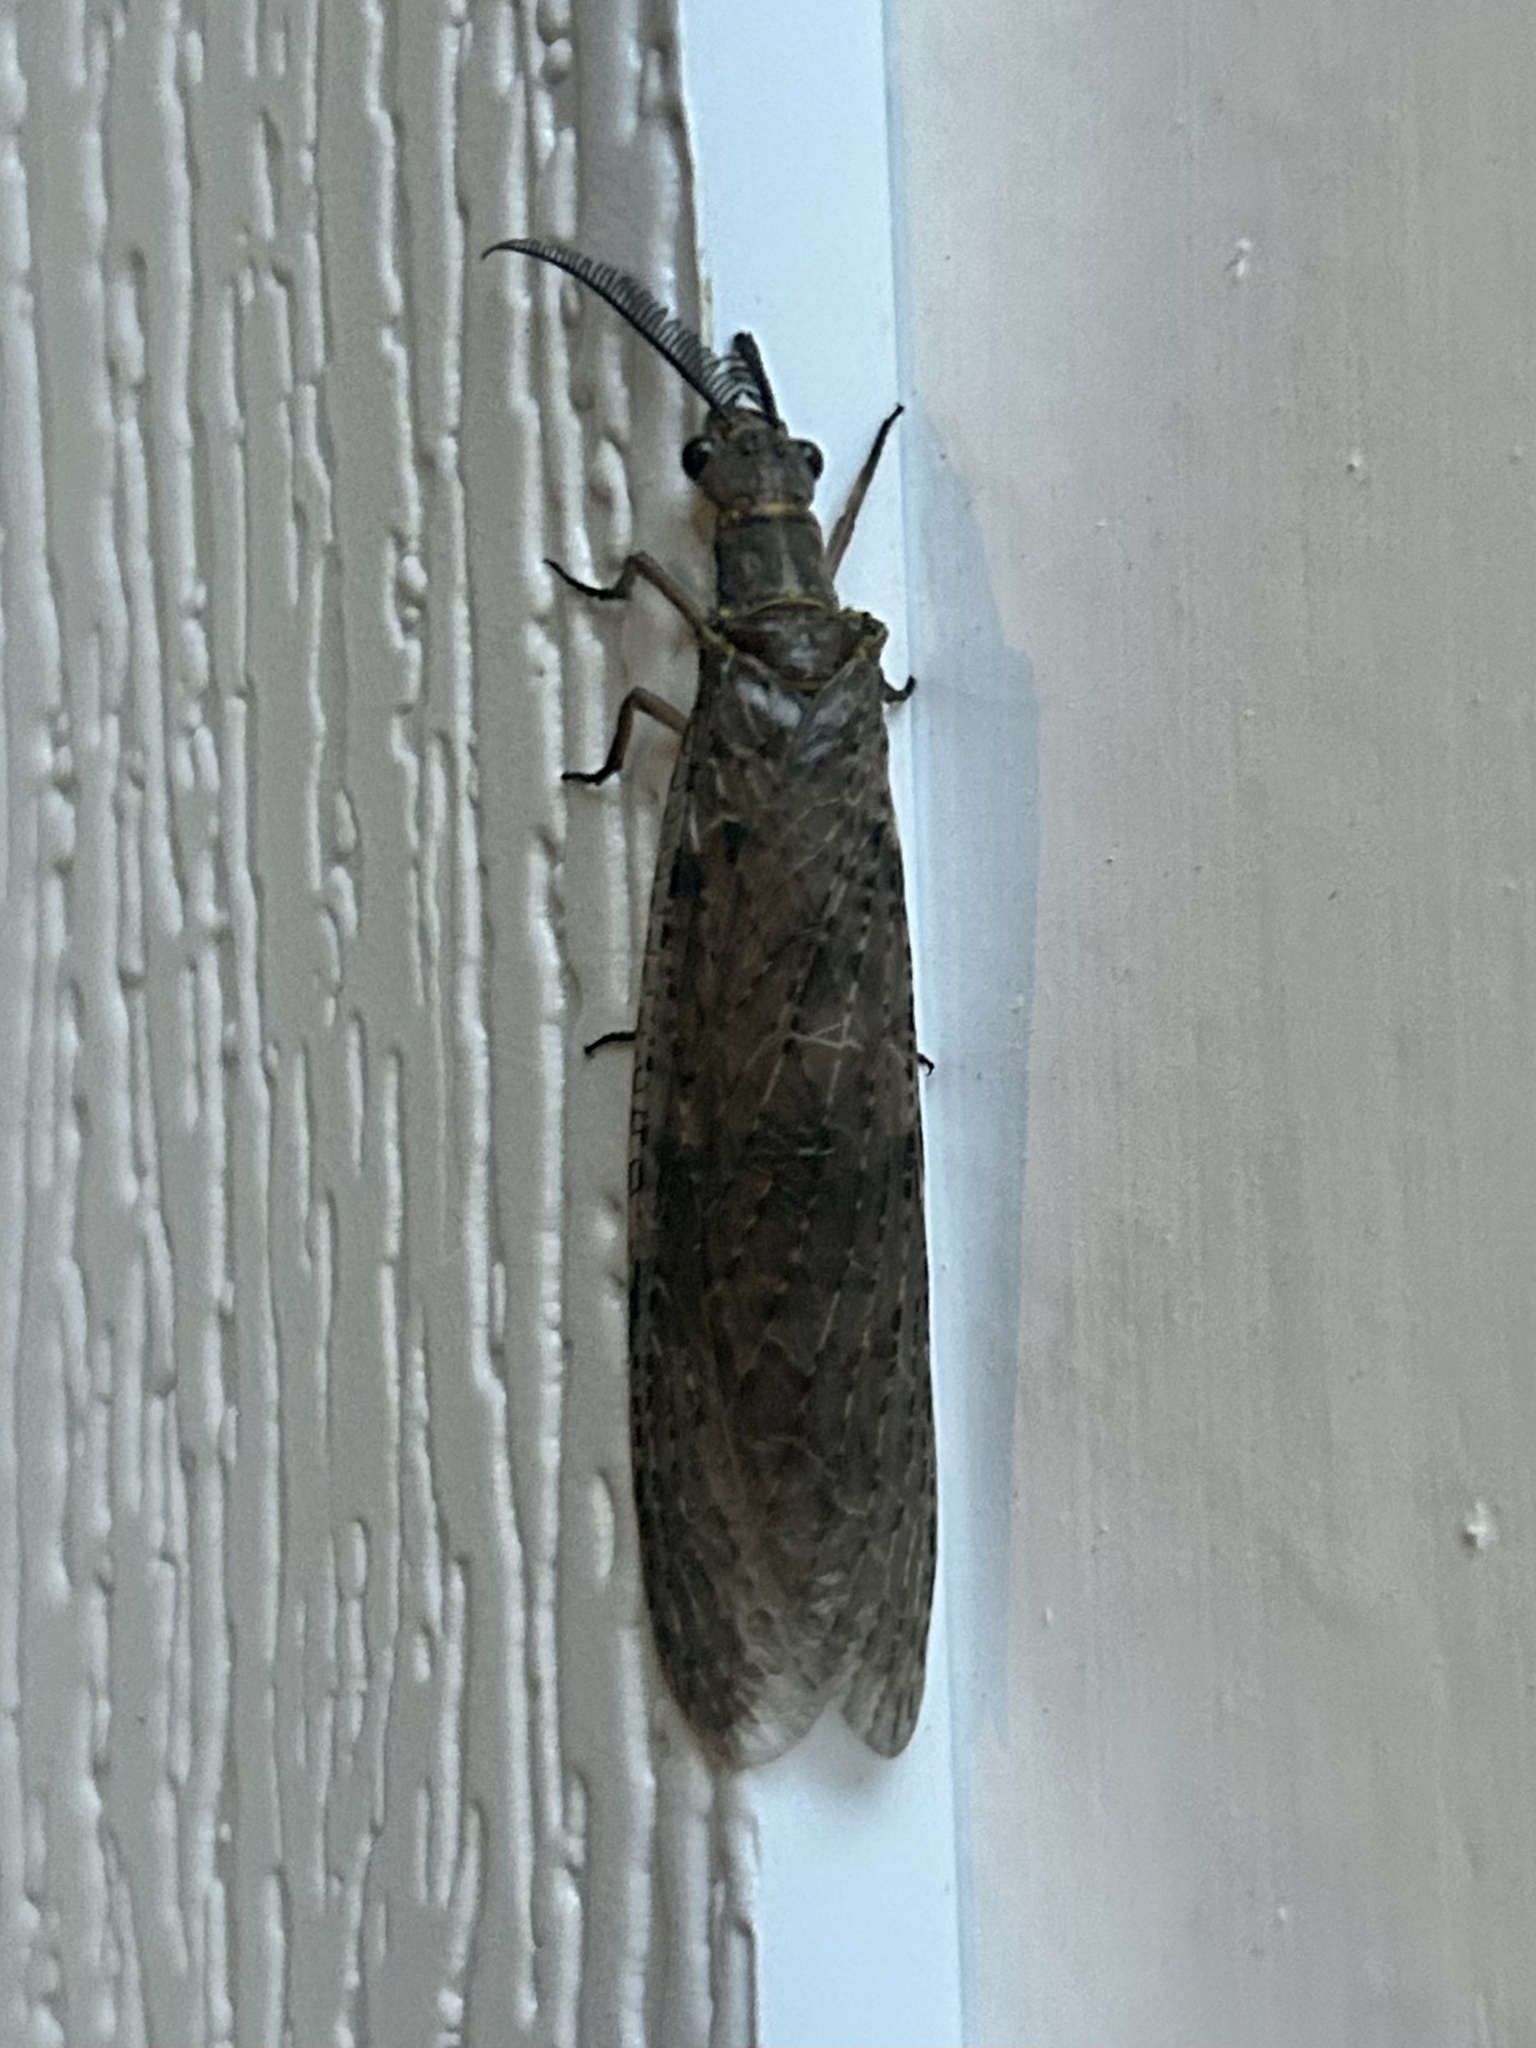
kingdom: Animalia
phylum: Arthropoda
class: Insecta
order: Megaloptera
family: Corydalidae
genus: Chauliodes
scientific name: Chauliodes pectinicornis
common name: Summer fishfly
